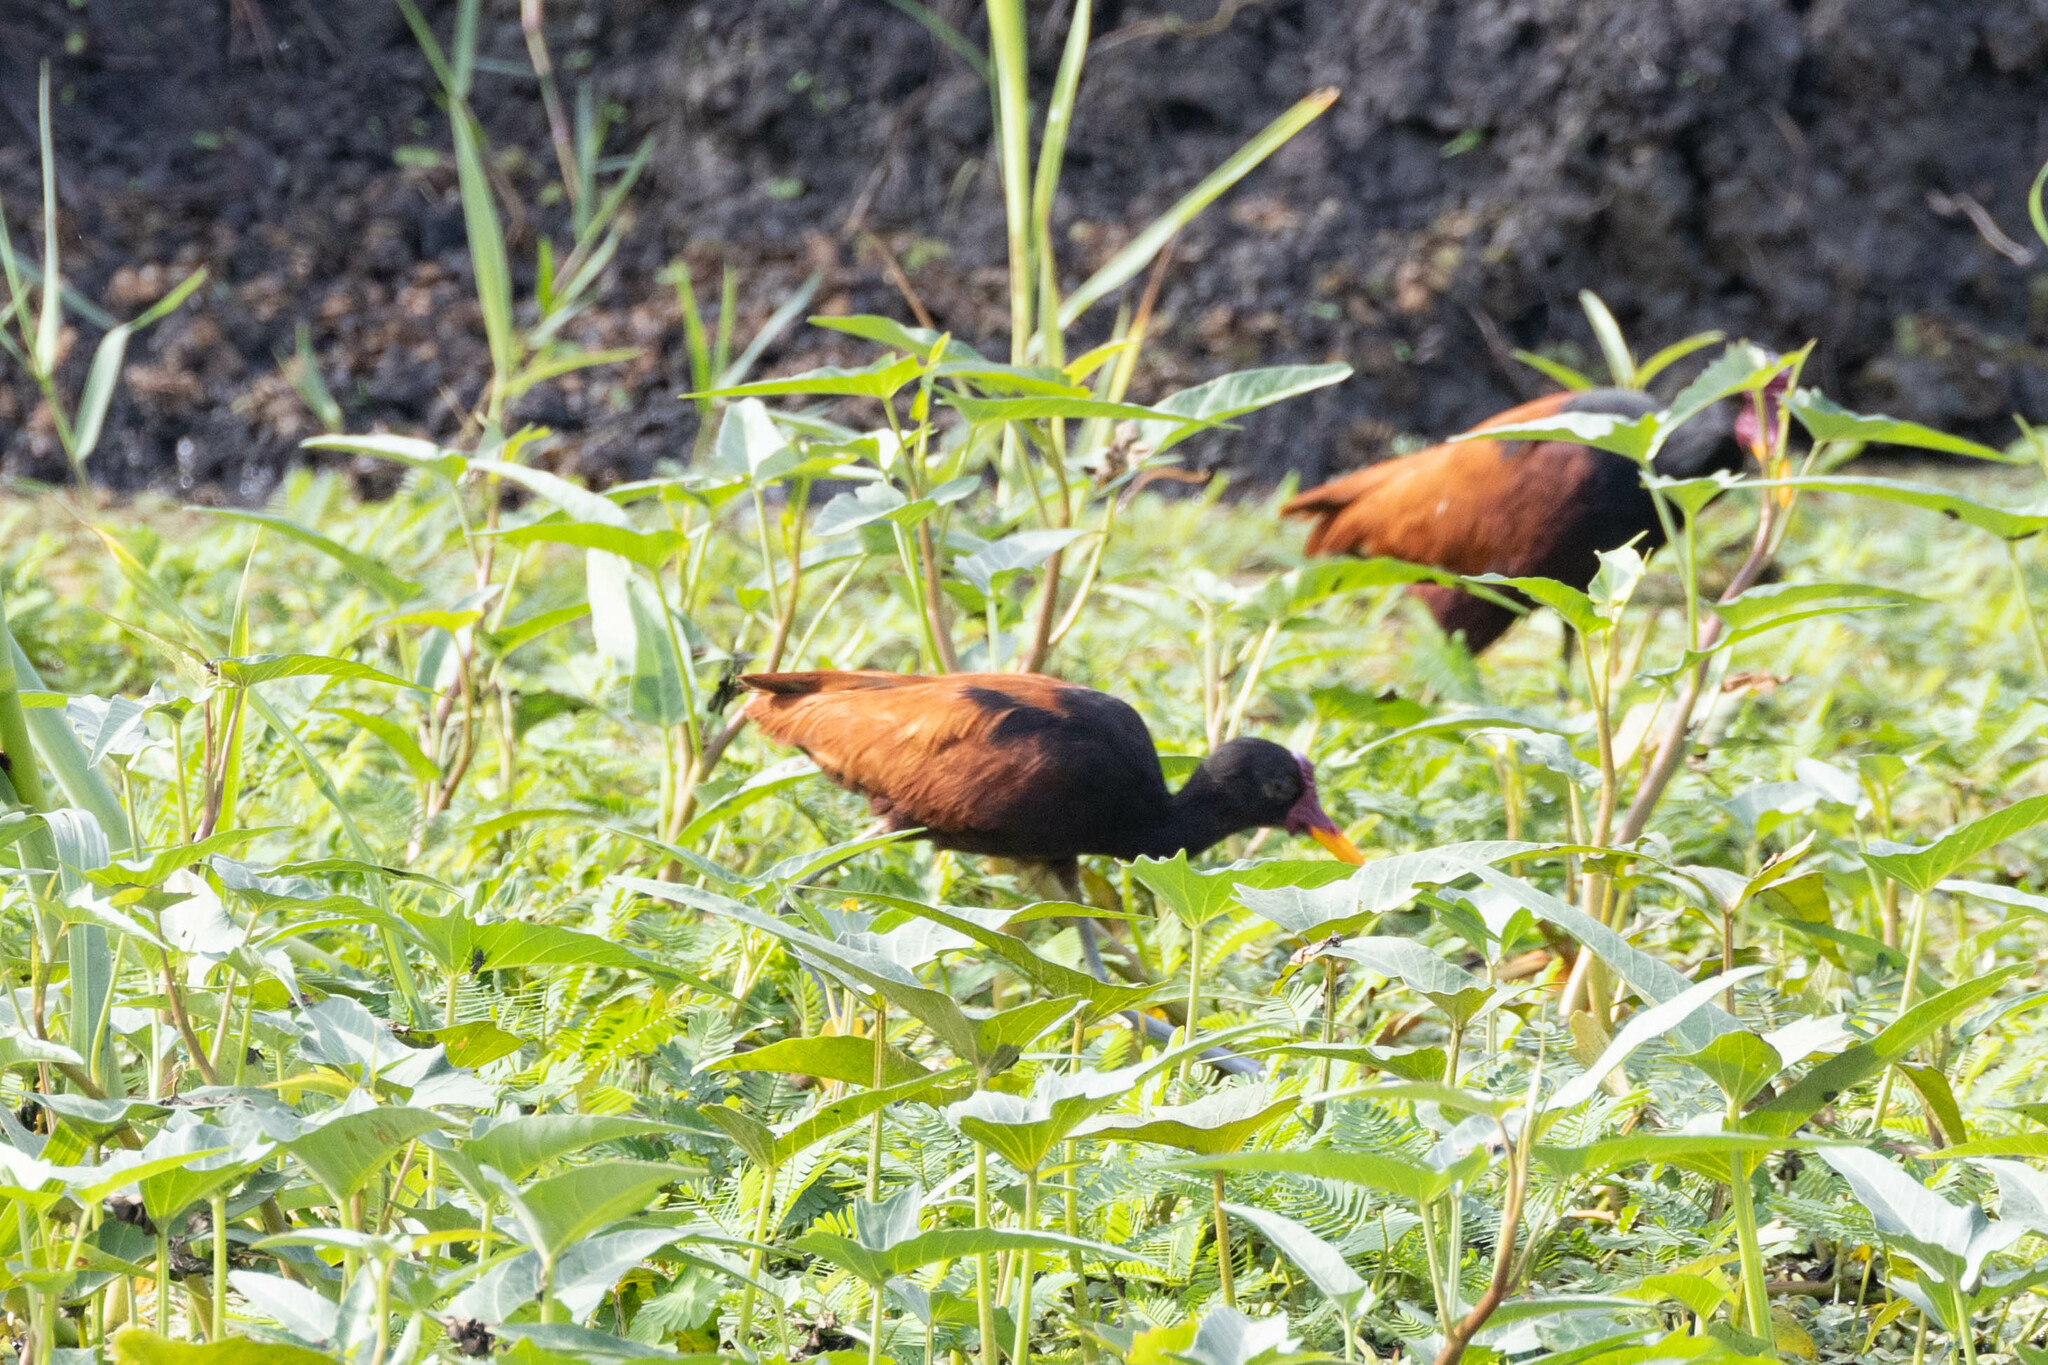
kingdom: Animalia
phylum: Chordata
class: Aves
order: Charadriiformes
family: Jacanidae
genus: Jacana
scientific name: Jacana jacana
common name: Wattled jacana
